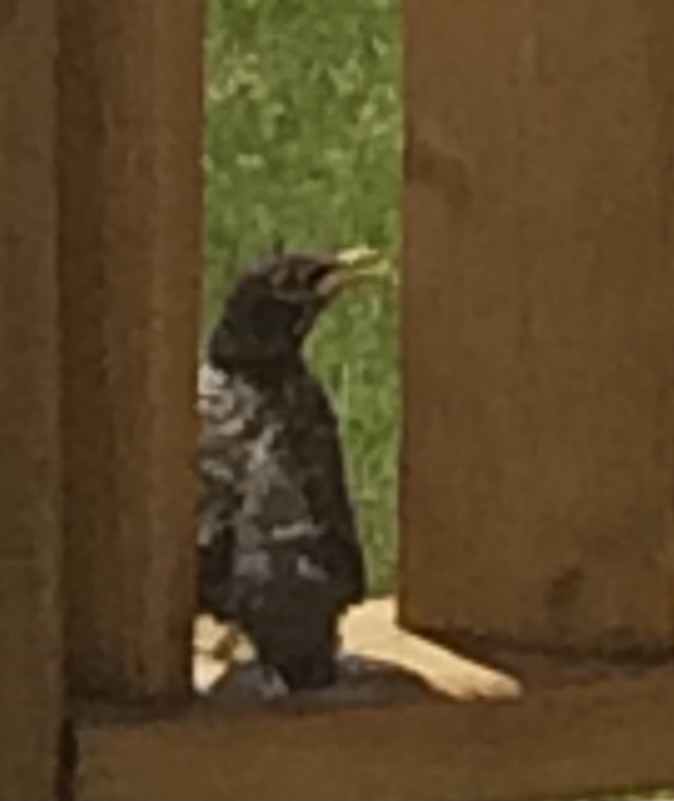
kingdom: Animalia
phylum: Chordata
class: Aves
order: Passeriformes
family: Sturnidae
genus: Sturnus
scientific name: Sturnus vulgaris
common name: Common starling
